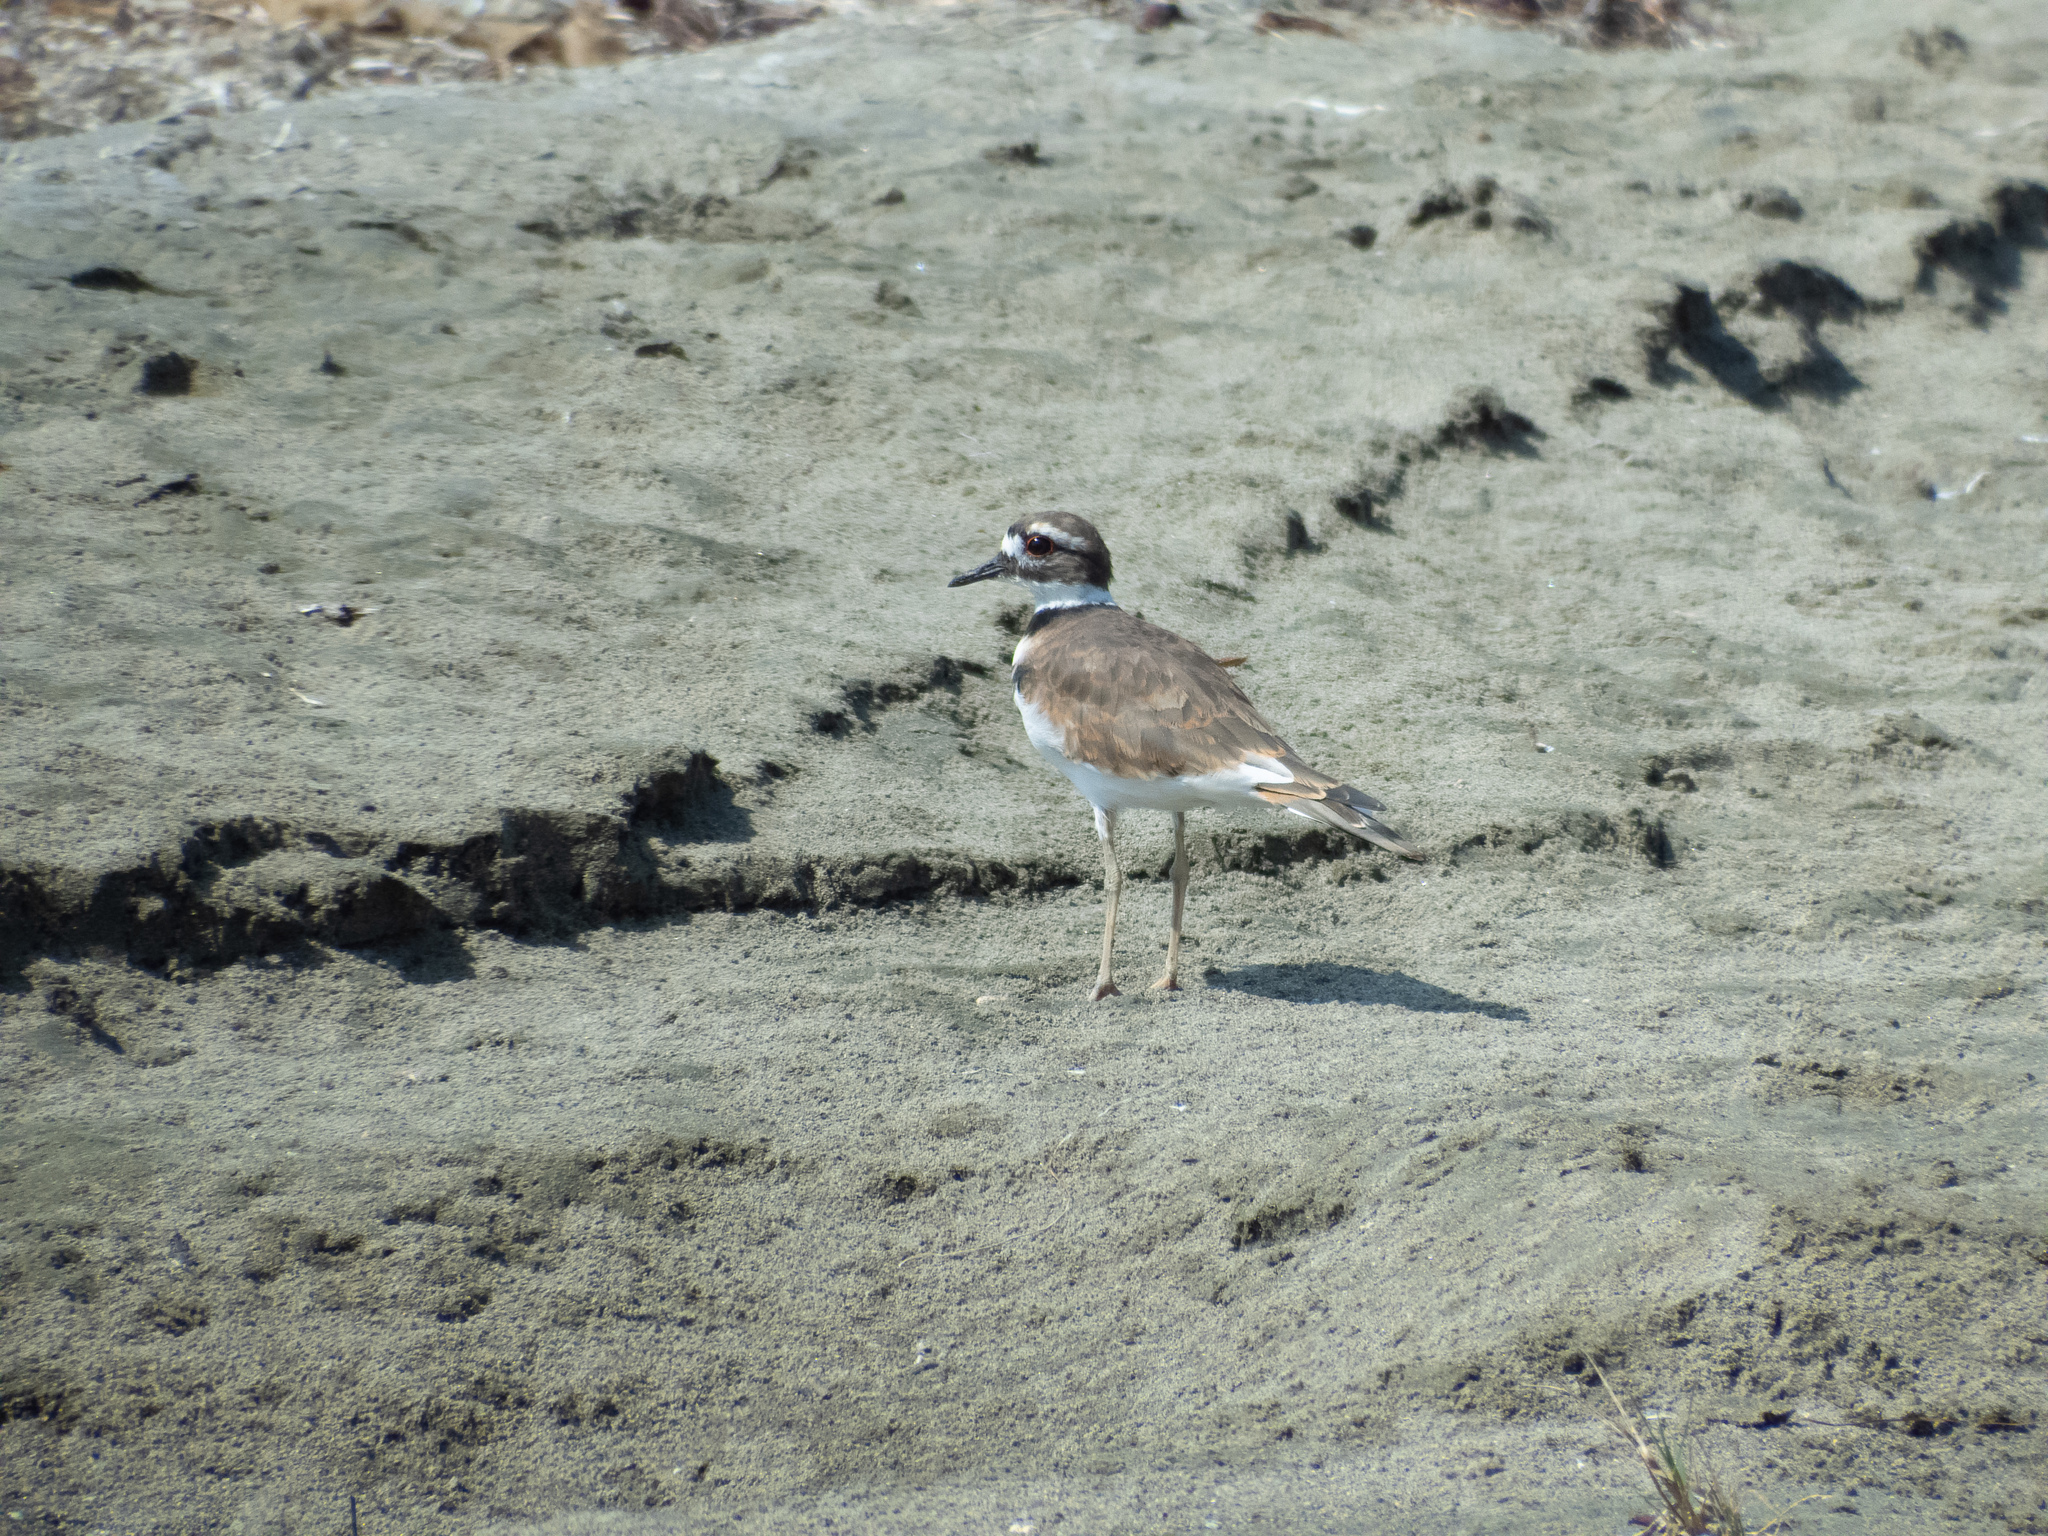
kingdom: Animalia
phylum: Chordata
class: Aves
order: Charadriiformes
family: Charadriidae
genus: Charadrius
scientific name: Charadrius vociferus
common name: Killdeer
